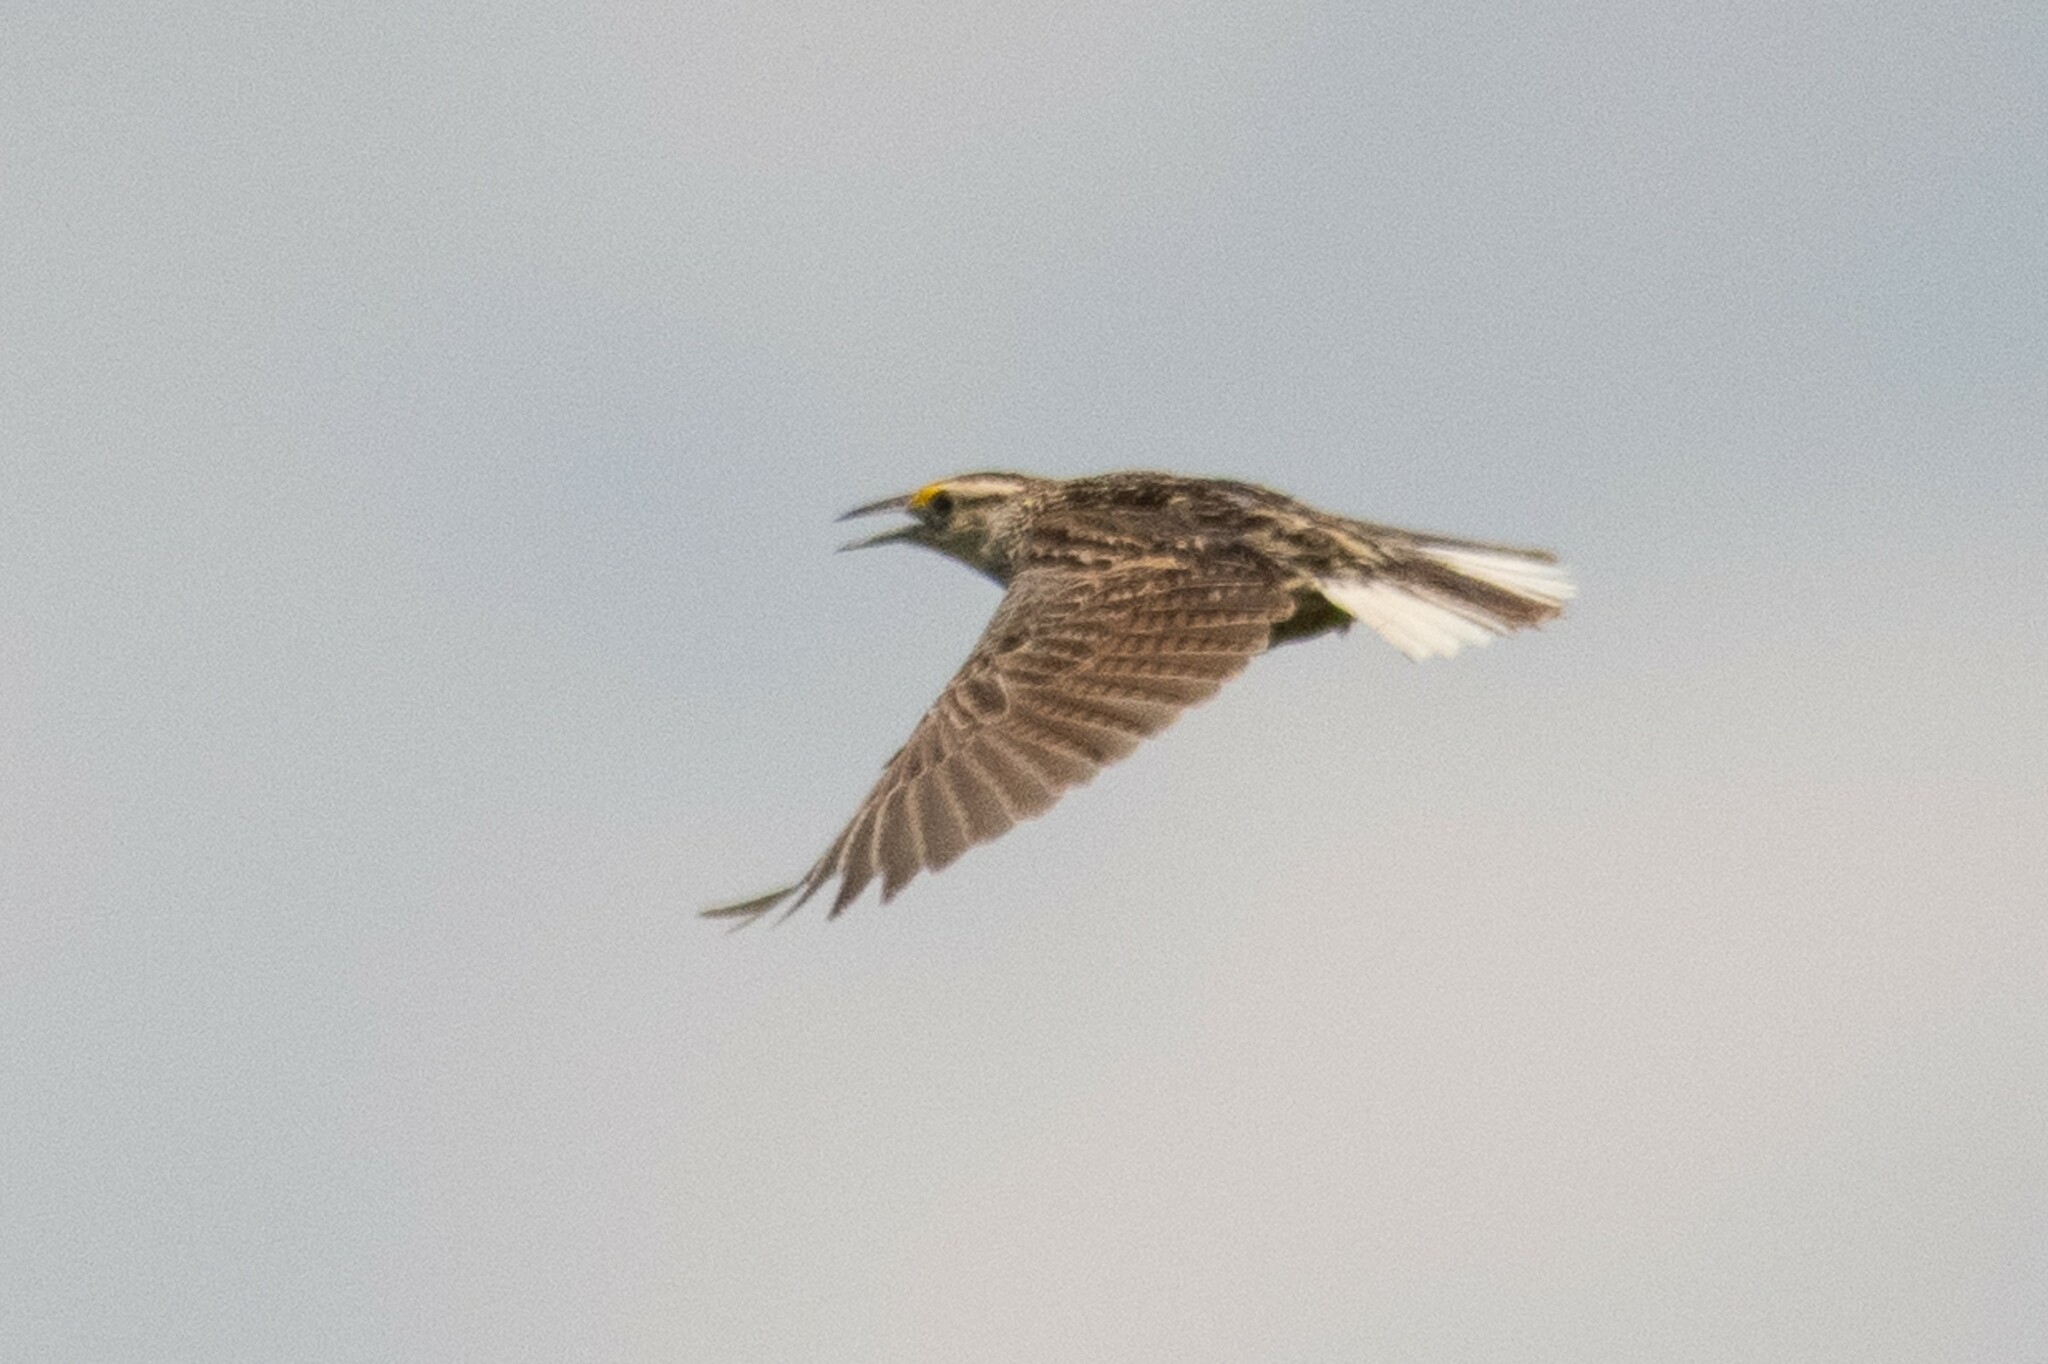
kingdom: Animalia
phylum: Chordata
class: Aves
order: Passeriformes
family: Icteridae
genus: Sturnella
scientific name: Sturnella magna
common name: Eastern meadowlark
